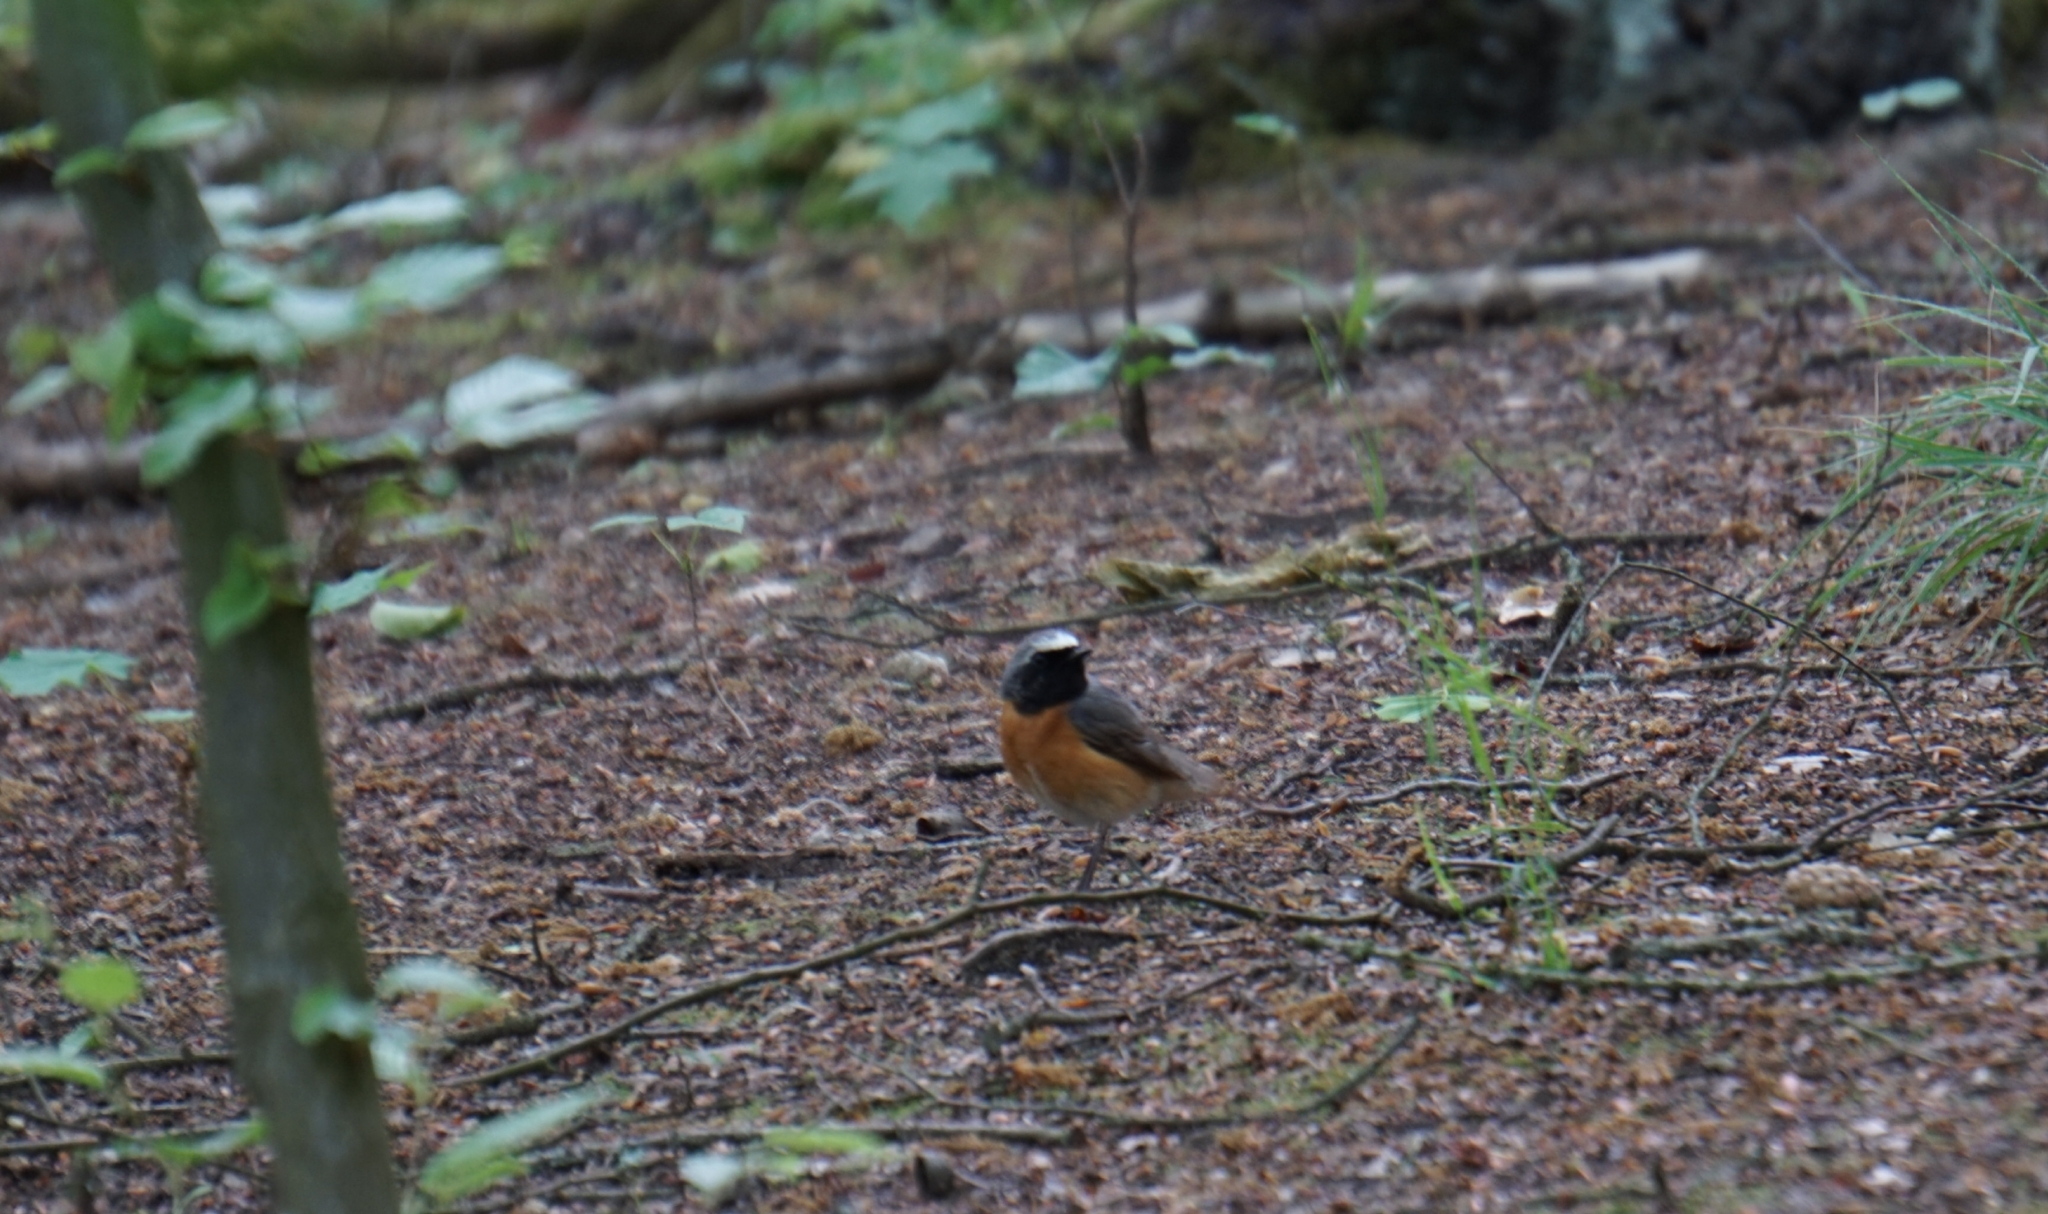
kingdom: Animalia
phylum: Chordata
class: Aves
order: Passeriformes
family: Muscicapidae
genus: Phoenicurus
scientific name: Phoenicurus phoenicurus
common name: Common redstart
